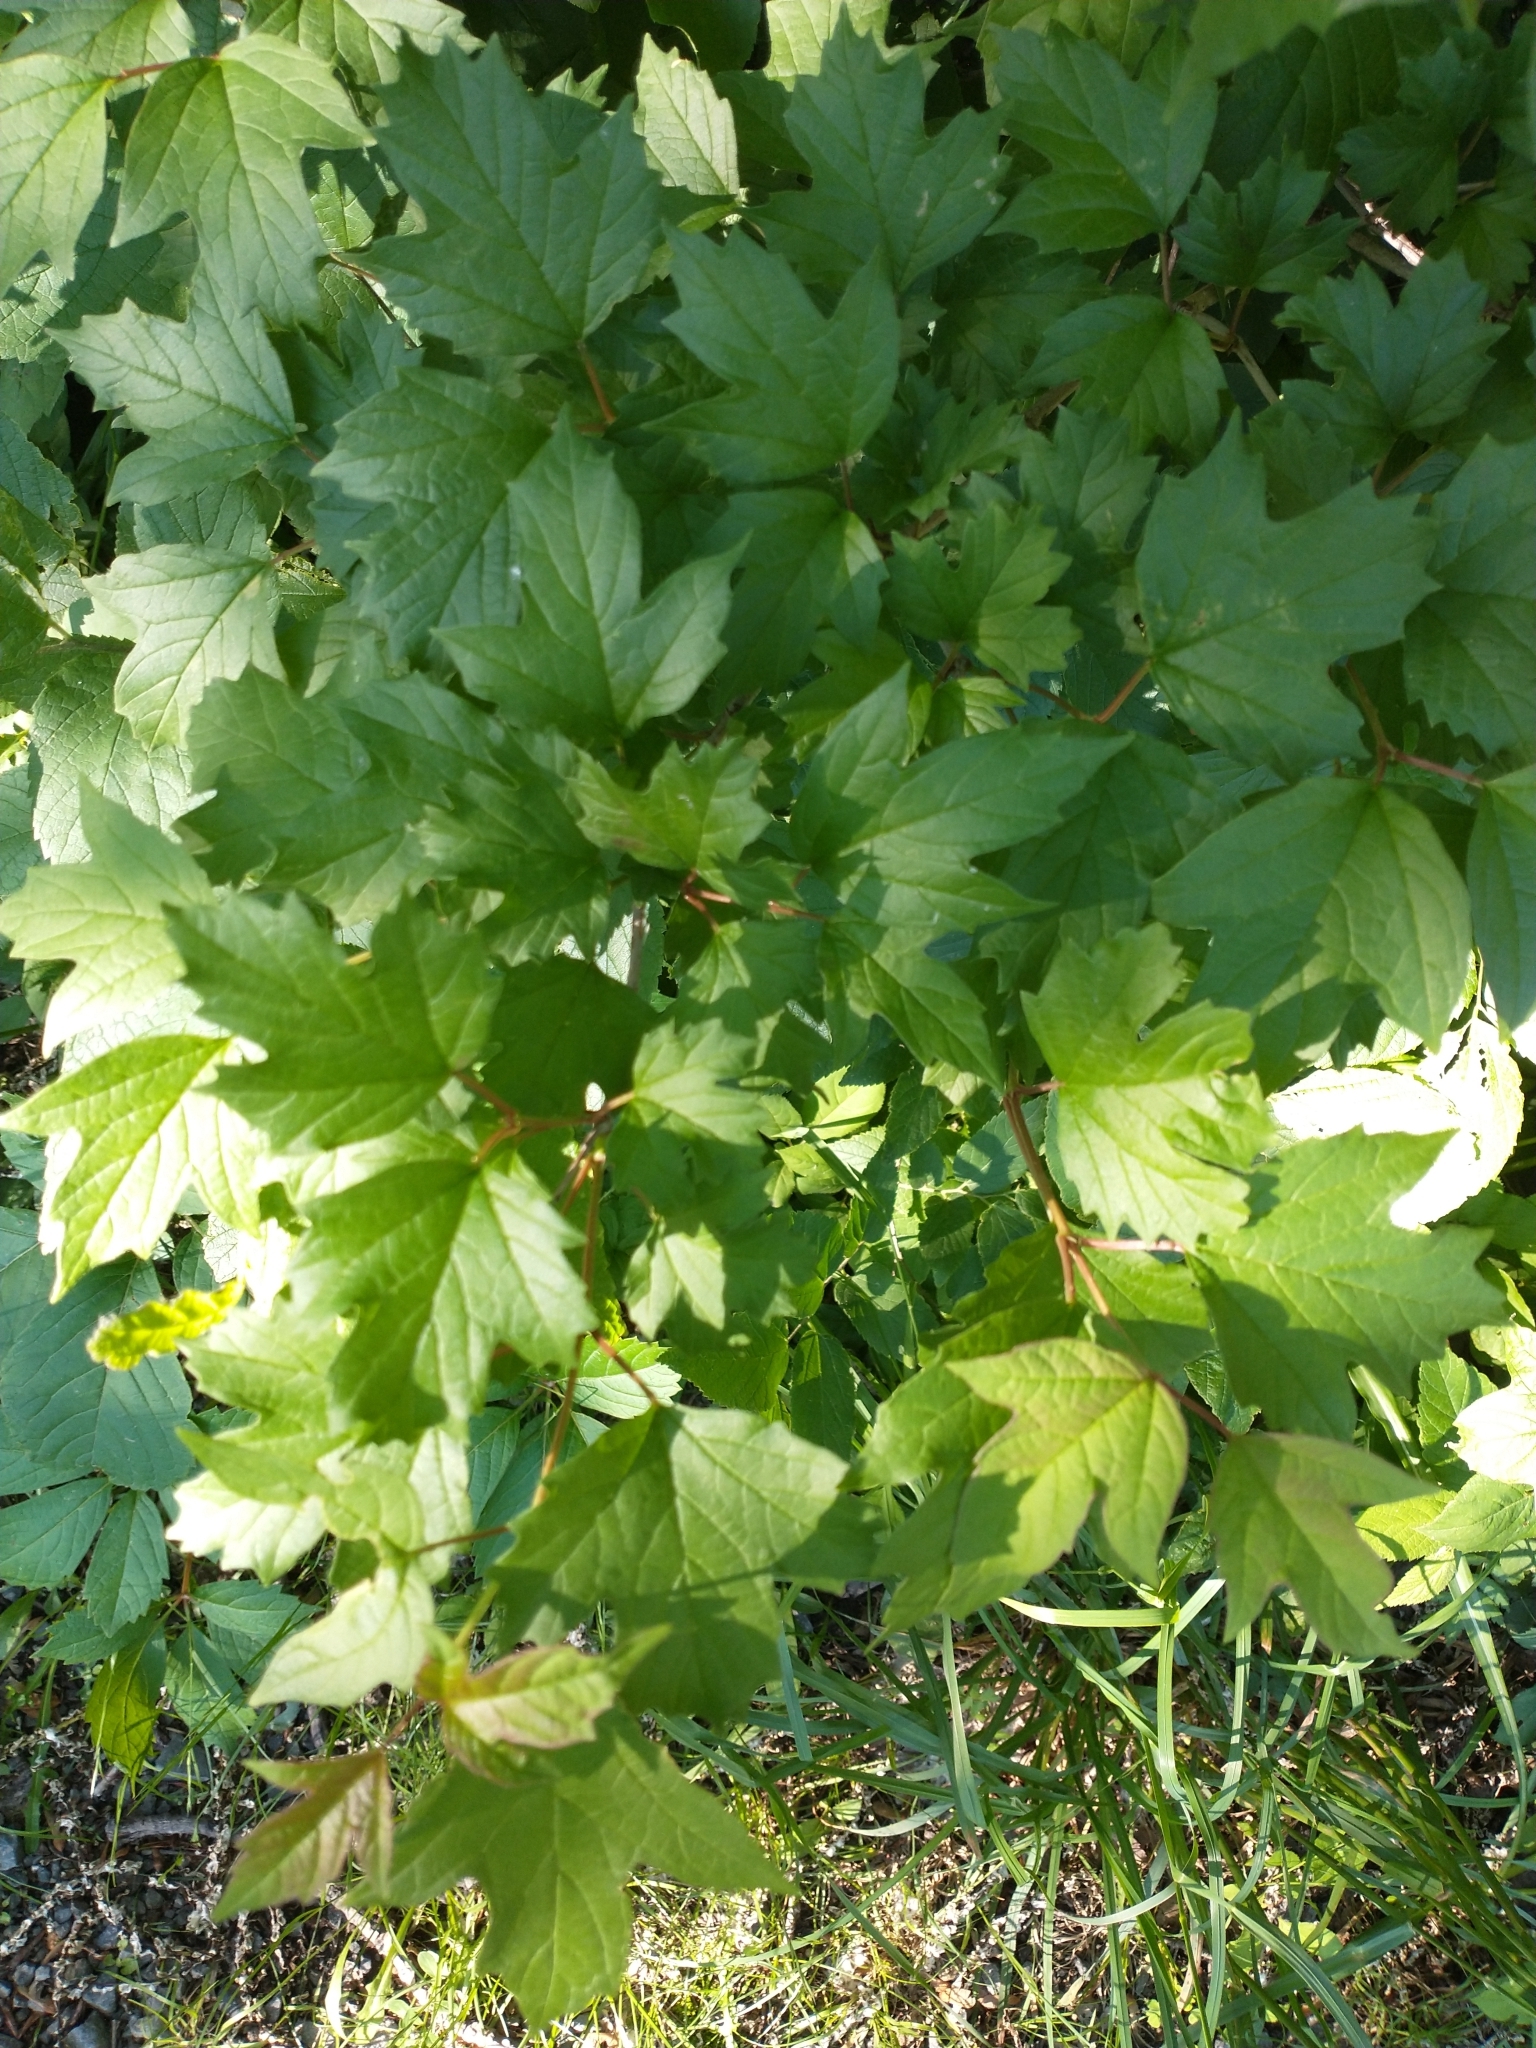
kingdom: Plantae
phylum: Tracheophyta
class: Magnoliopsida
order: Dipsacales
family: Viburnaceae
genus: Viburnum
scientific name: Viburnum opulus
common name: Guelder-rose
